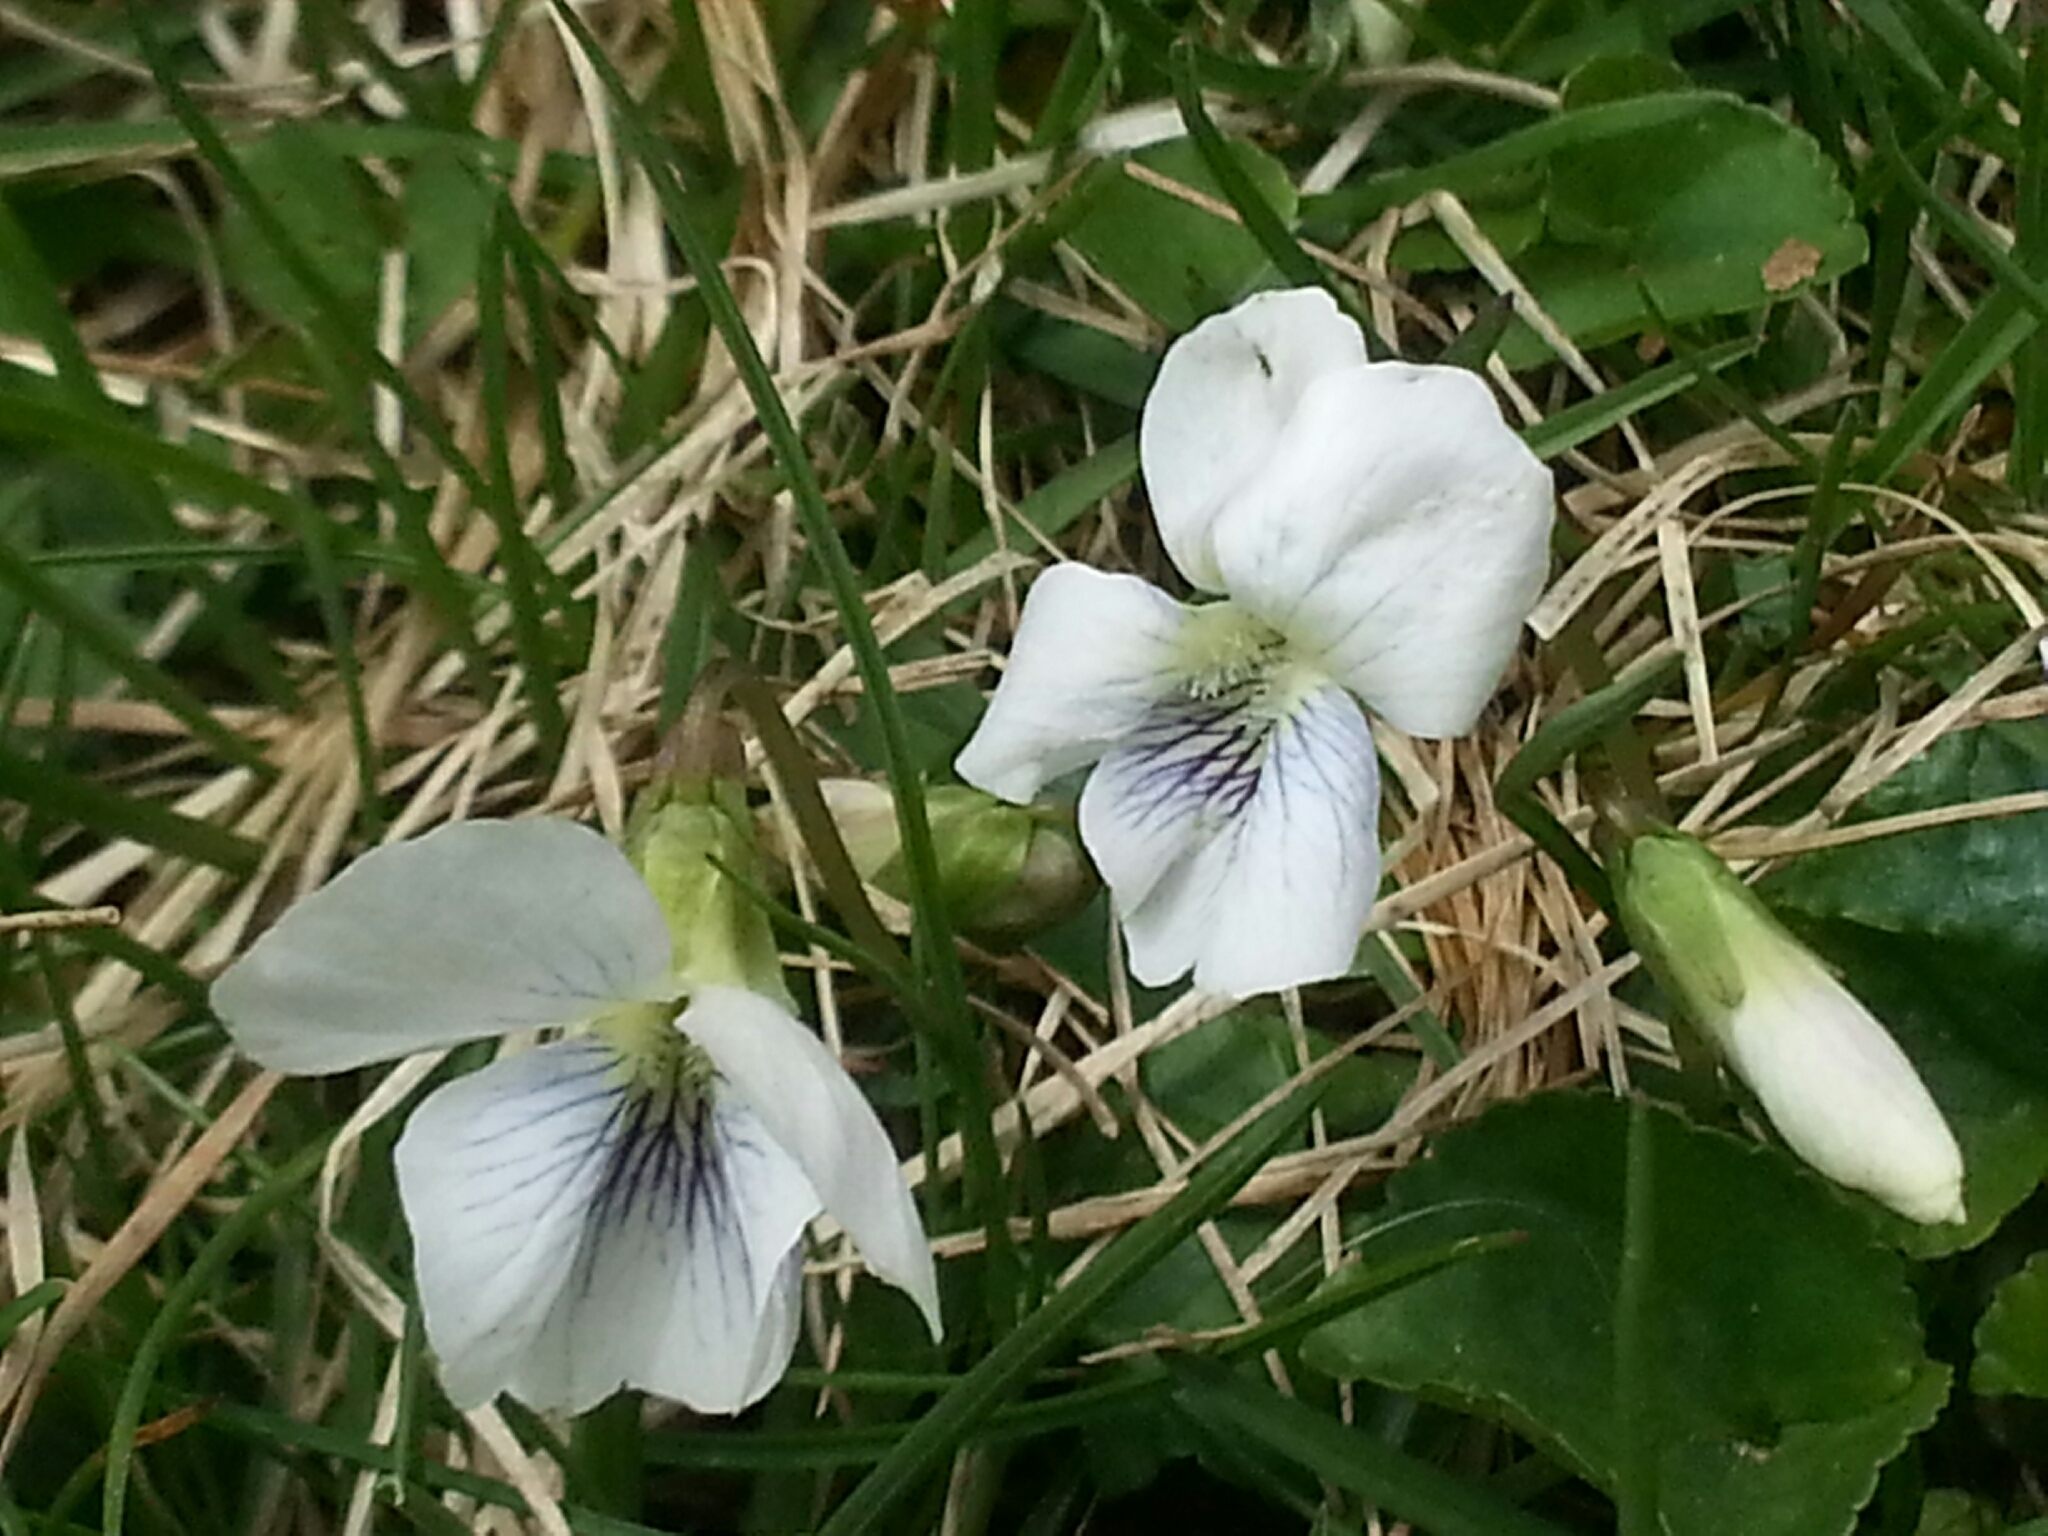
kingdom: Plantae
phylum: Tracheophyta
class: Magnoliopsida
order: Malpighiales
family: Violaceae
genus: Viola
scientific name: Viola sororia
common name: Dooryard violet
